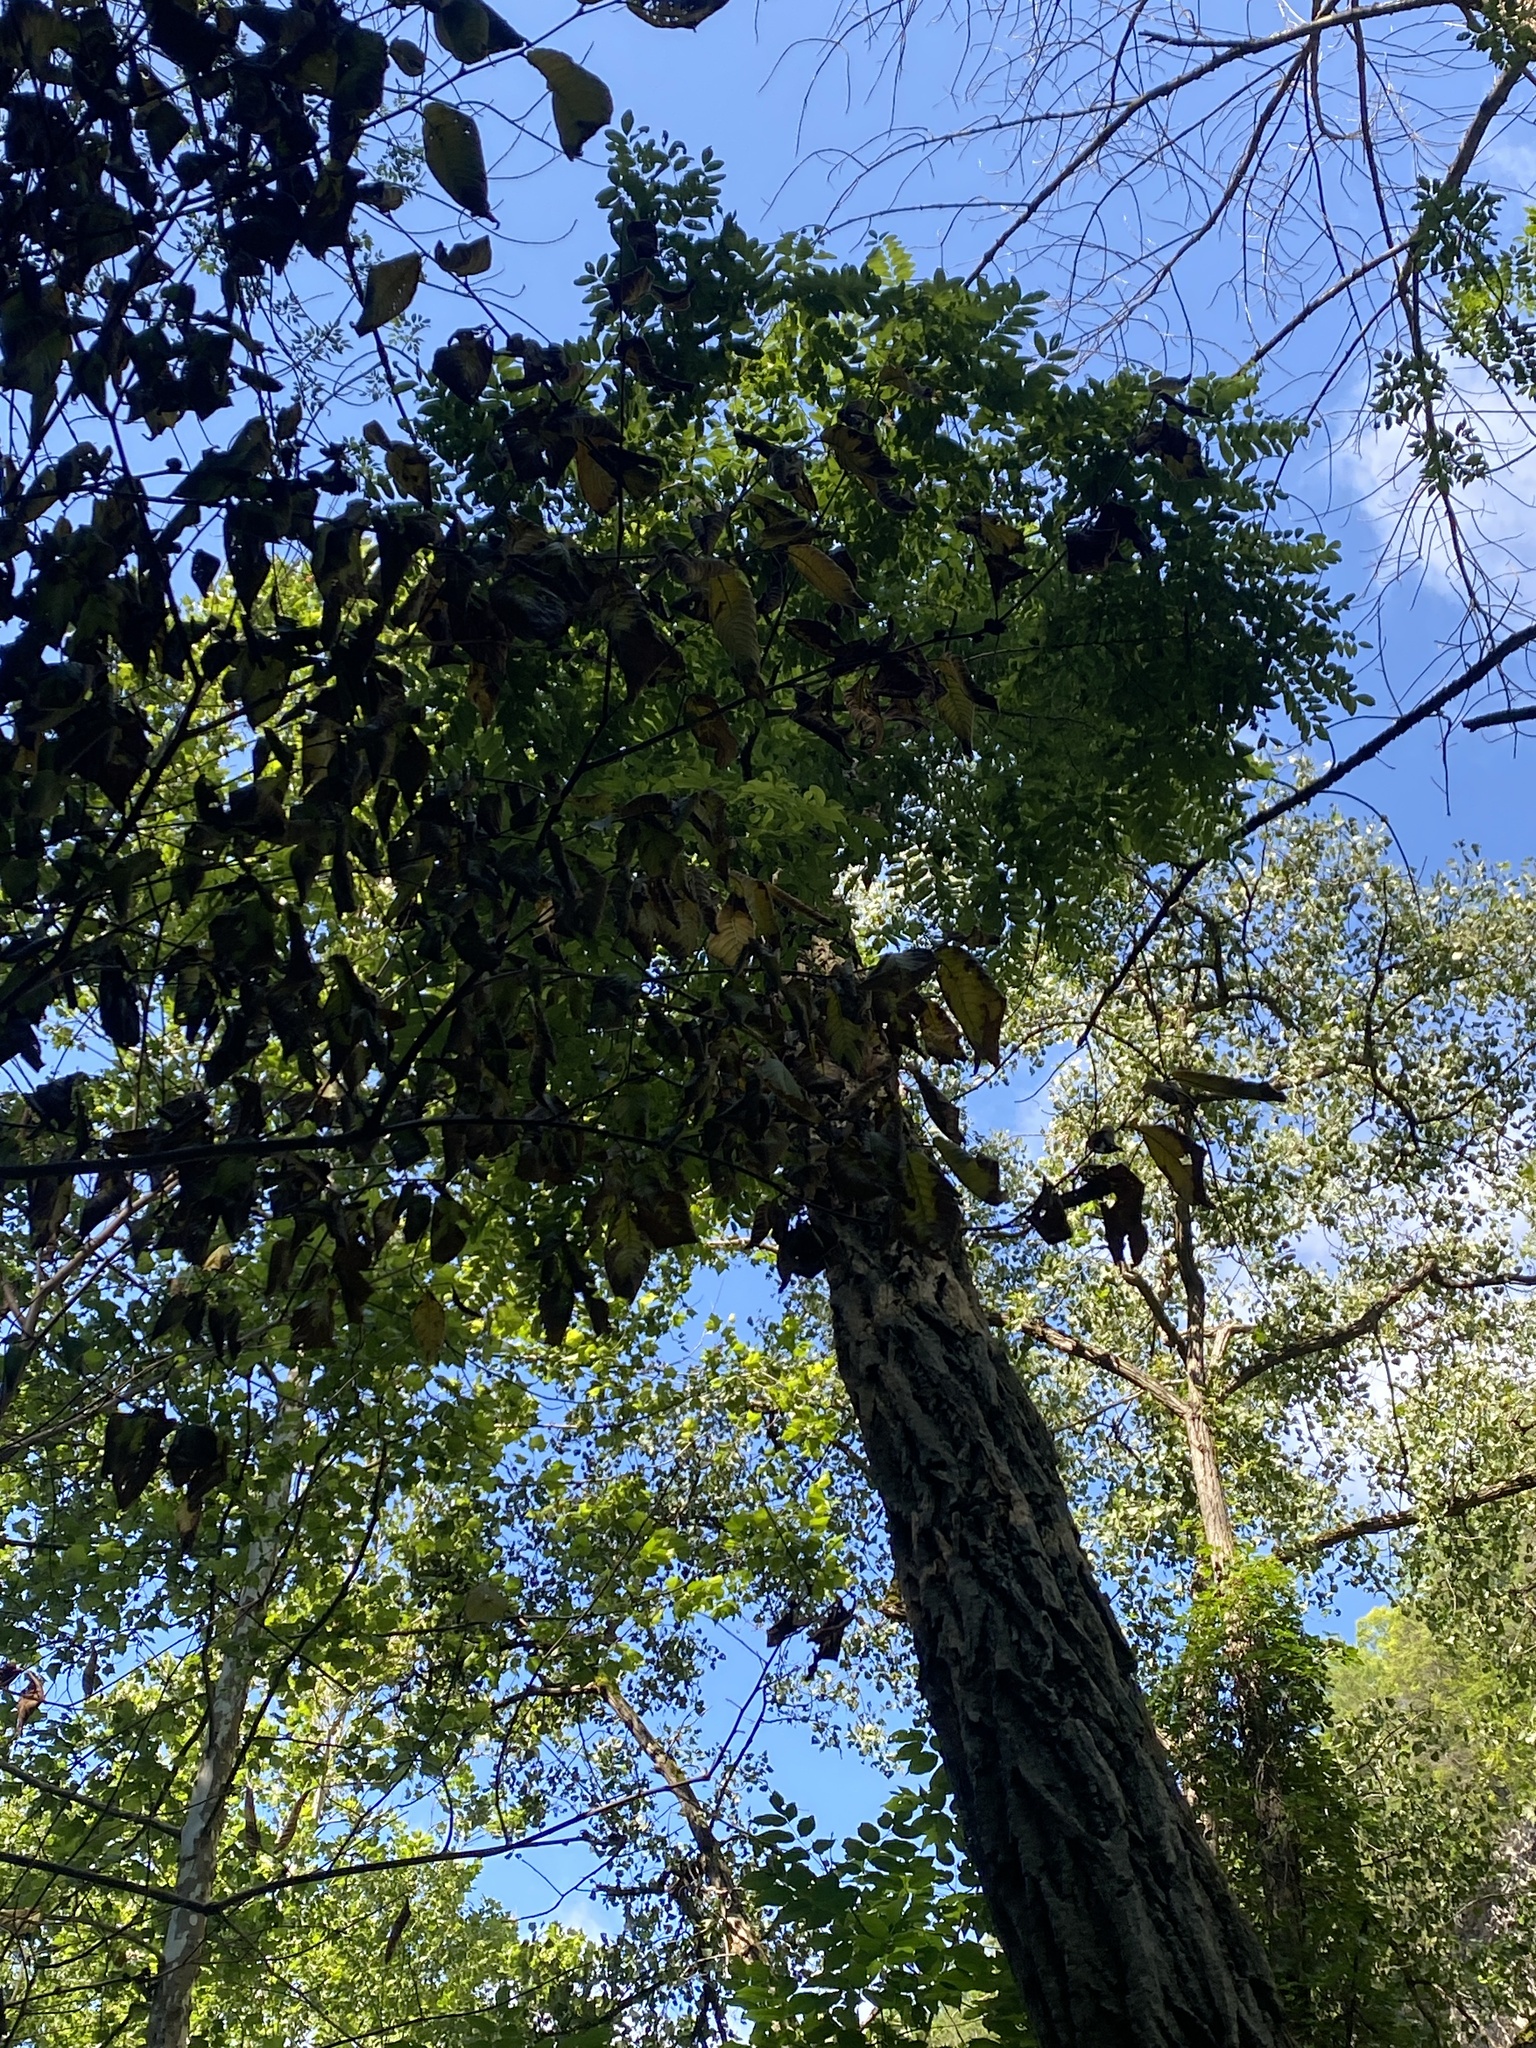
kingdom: Plantae
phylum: Tracheophyta
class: Magnoliopsida
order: Fabales
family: Fabaceae
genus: Robinia
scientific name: Robinia pseudoacacia
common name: Black locust
